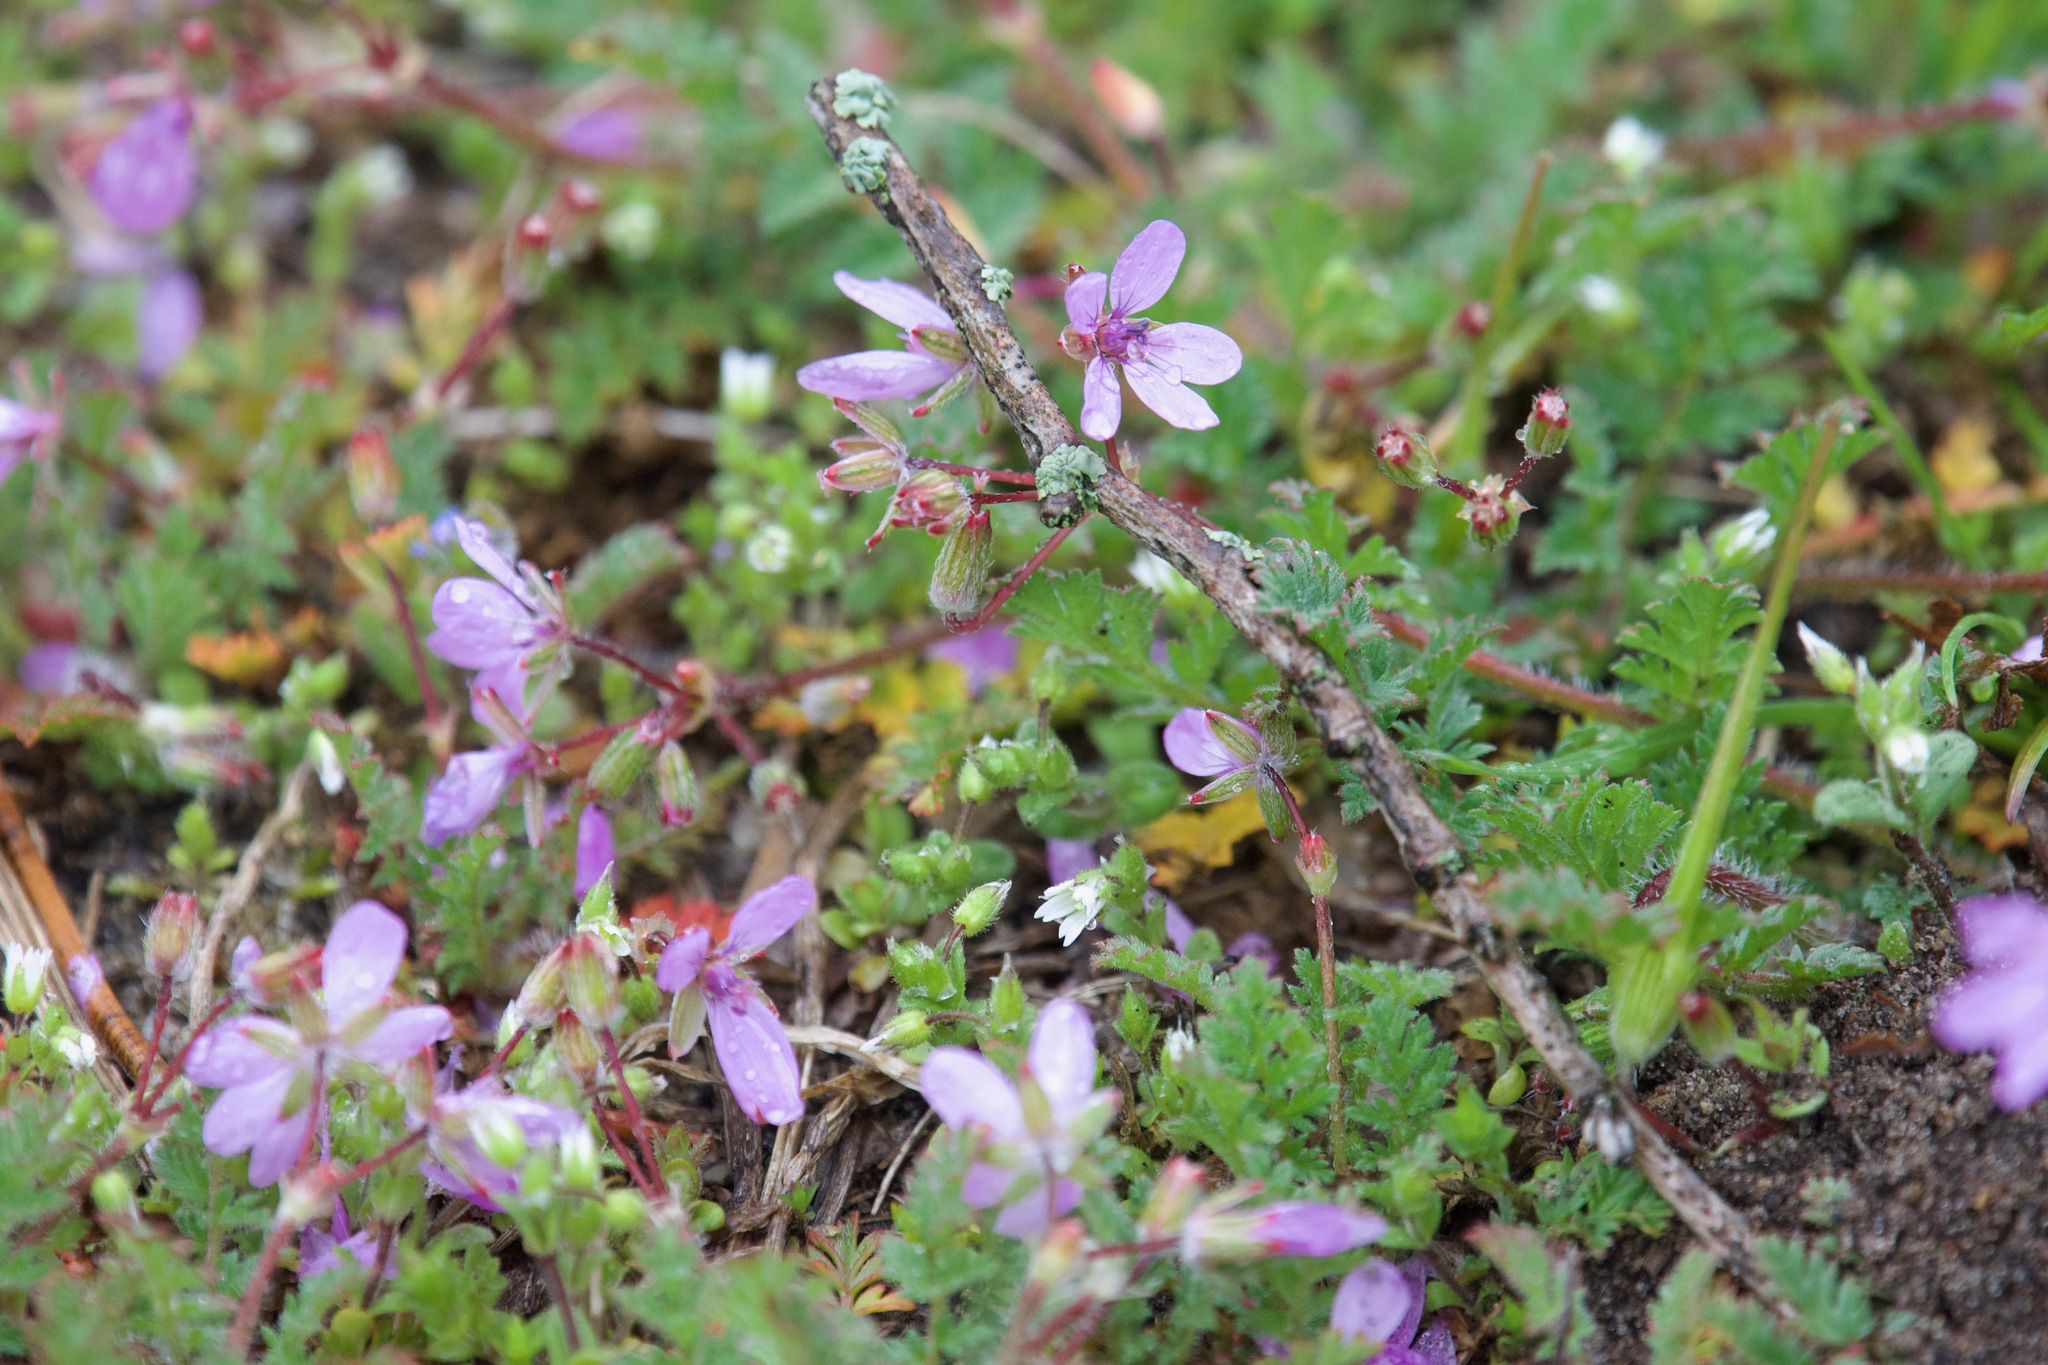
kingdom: Plantae
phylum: Tracheophyta
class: Magnoliopsida
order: Geraniales
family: Geraniaceae
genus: Erodium
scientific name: Erodium cicutarium
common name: Common stork's-bill
